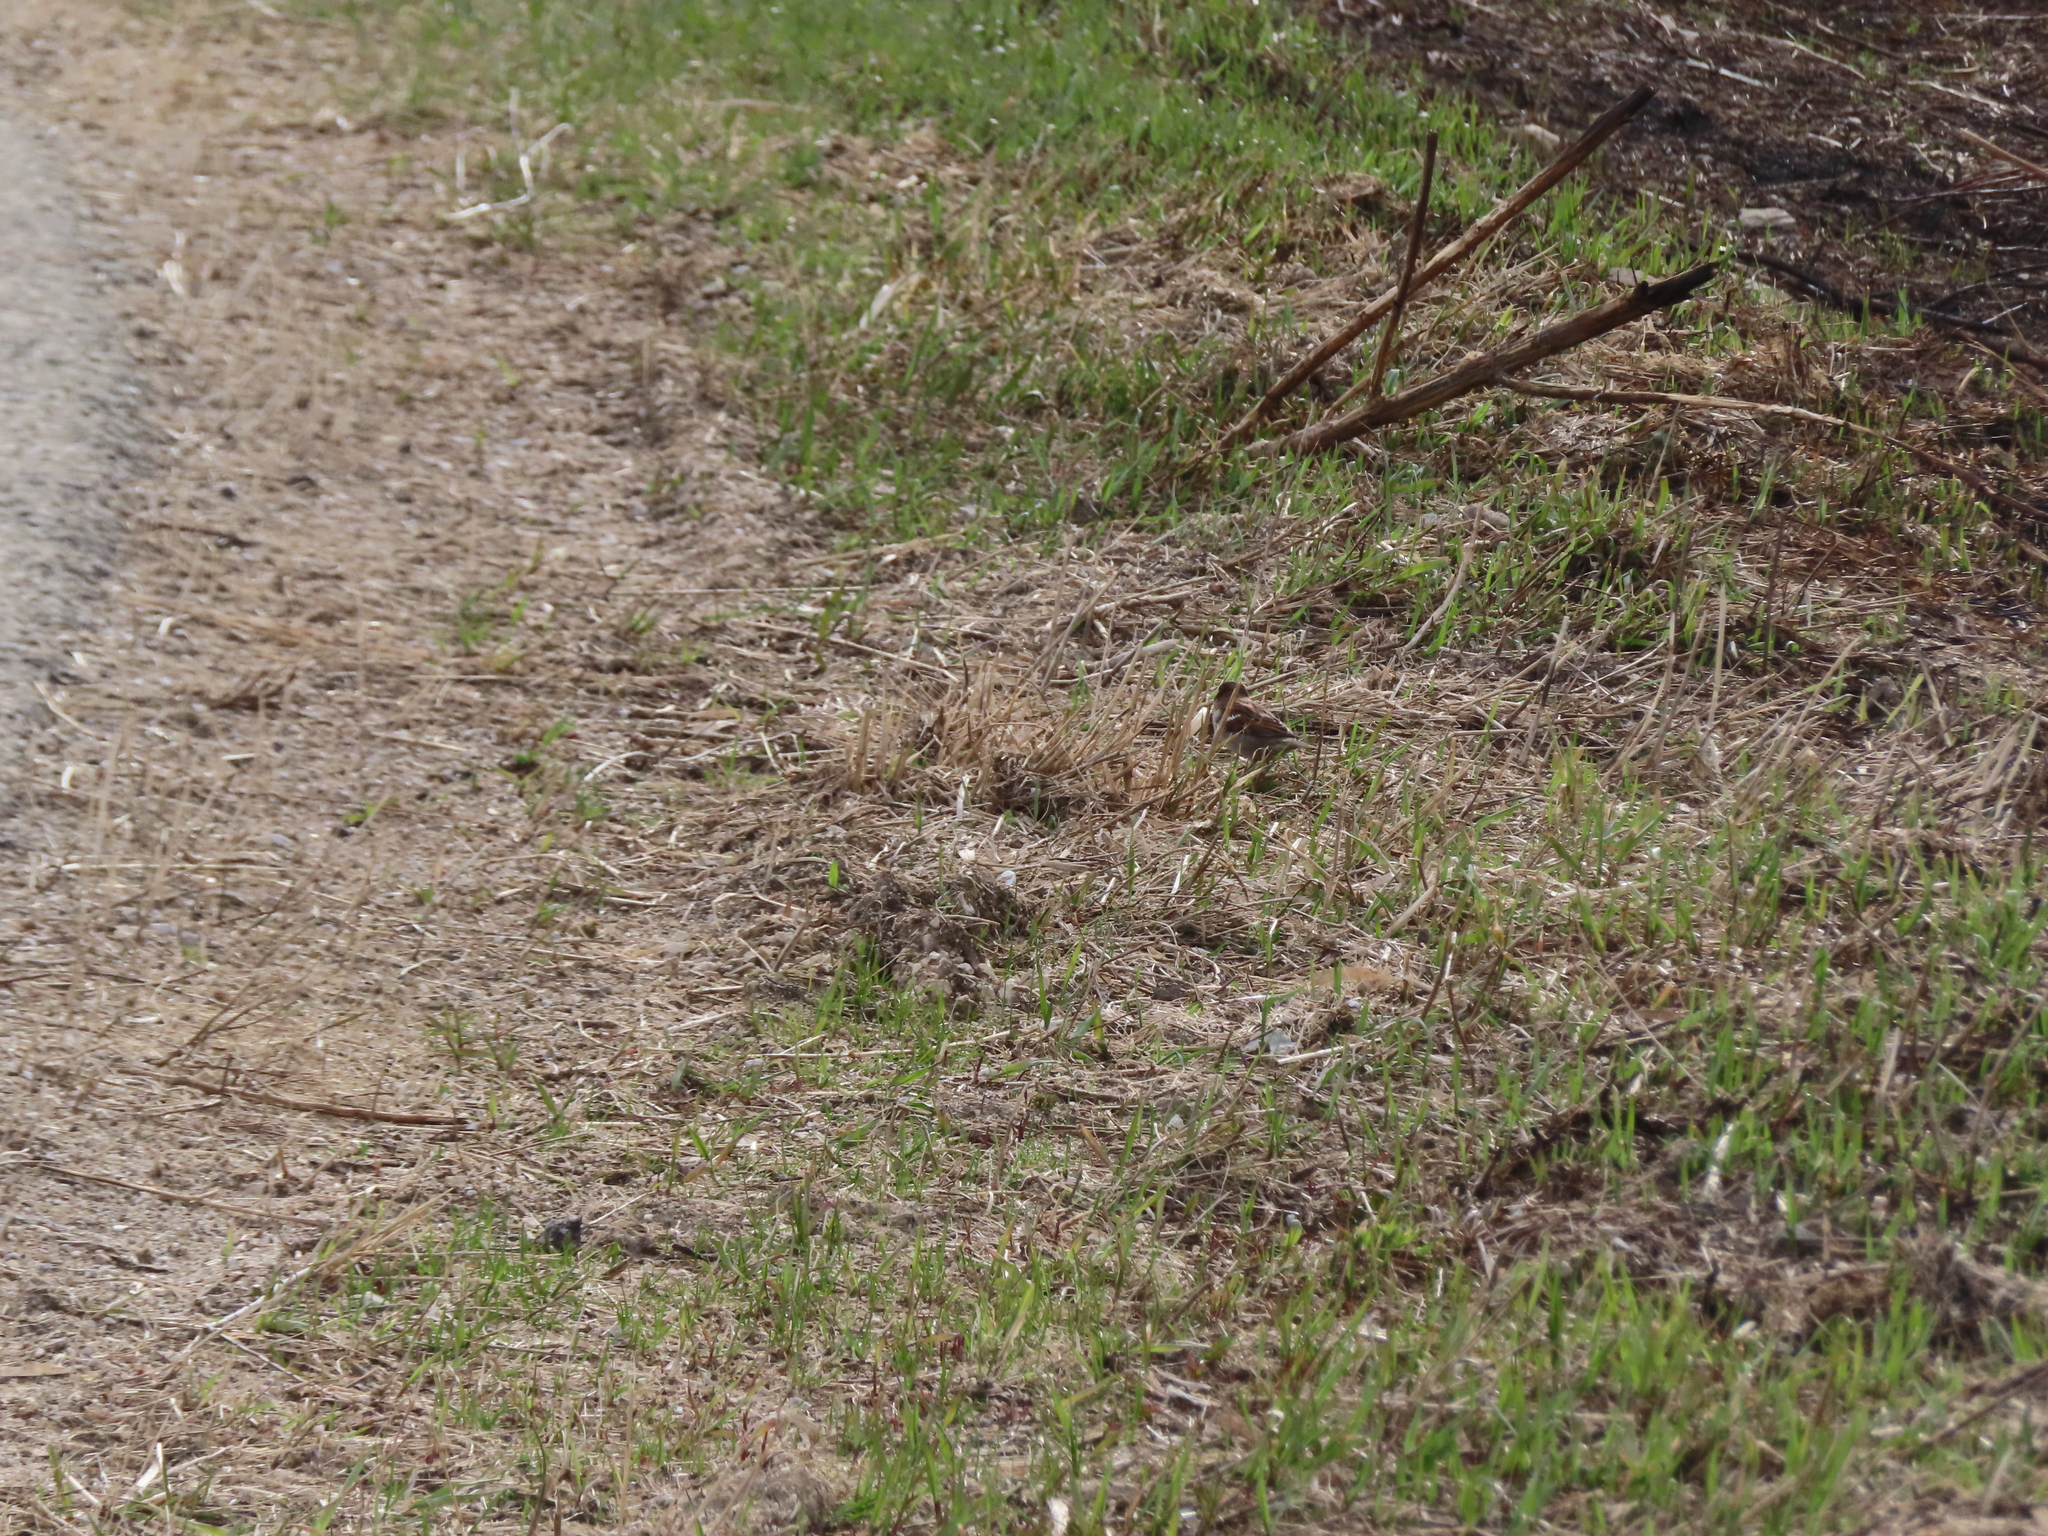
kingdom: Animalia
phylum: Chordata
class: Aves
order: Passeriformes
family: Passeridae
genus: Passer
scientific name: Passer domesticus
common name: House sparrow
